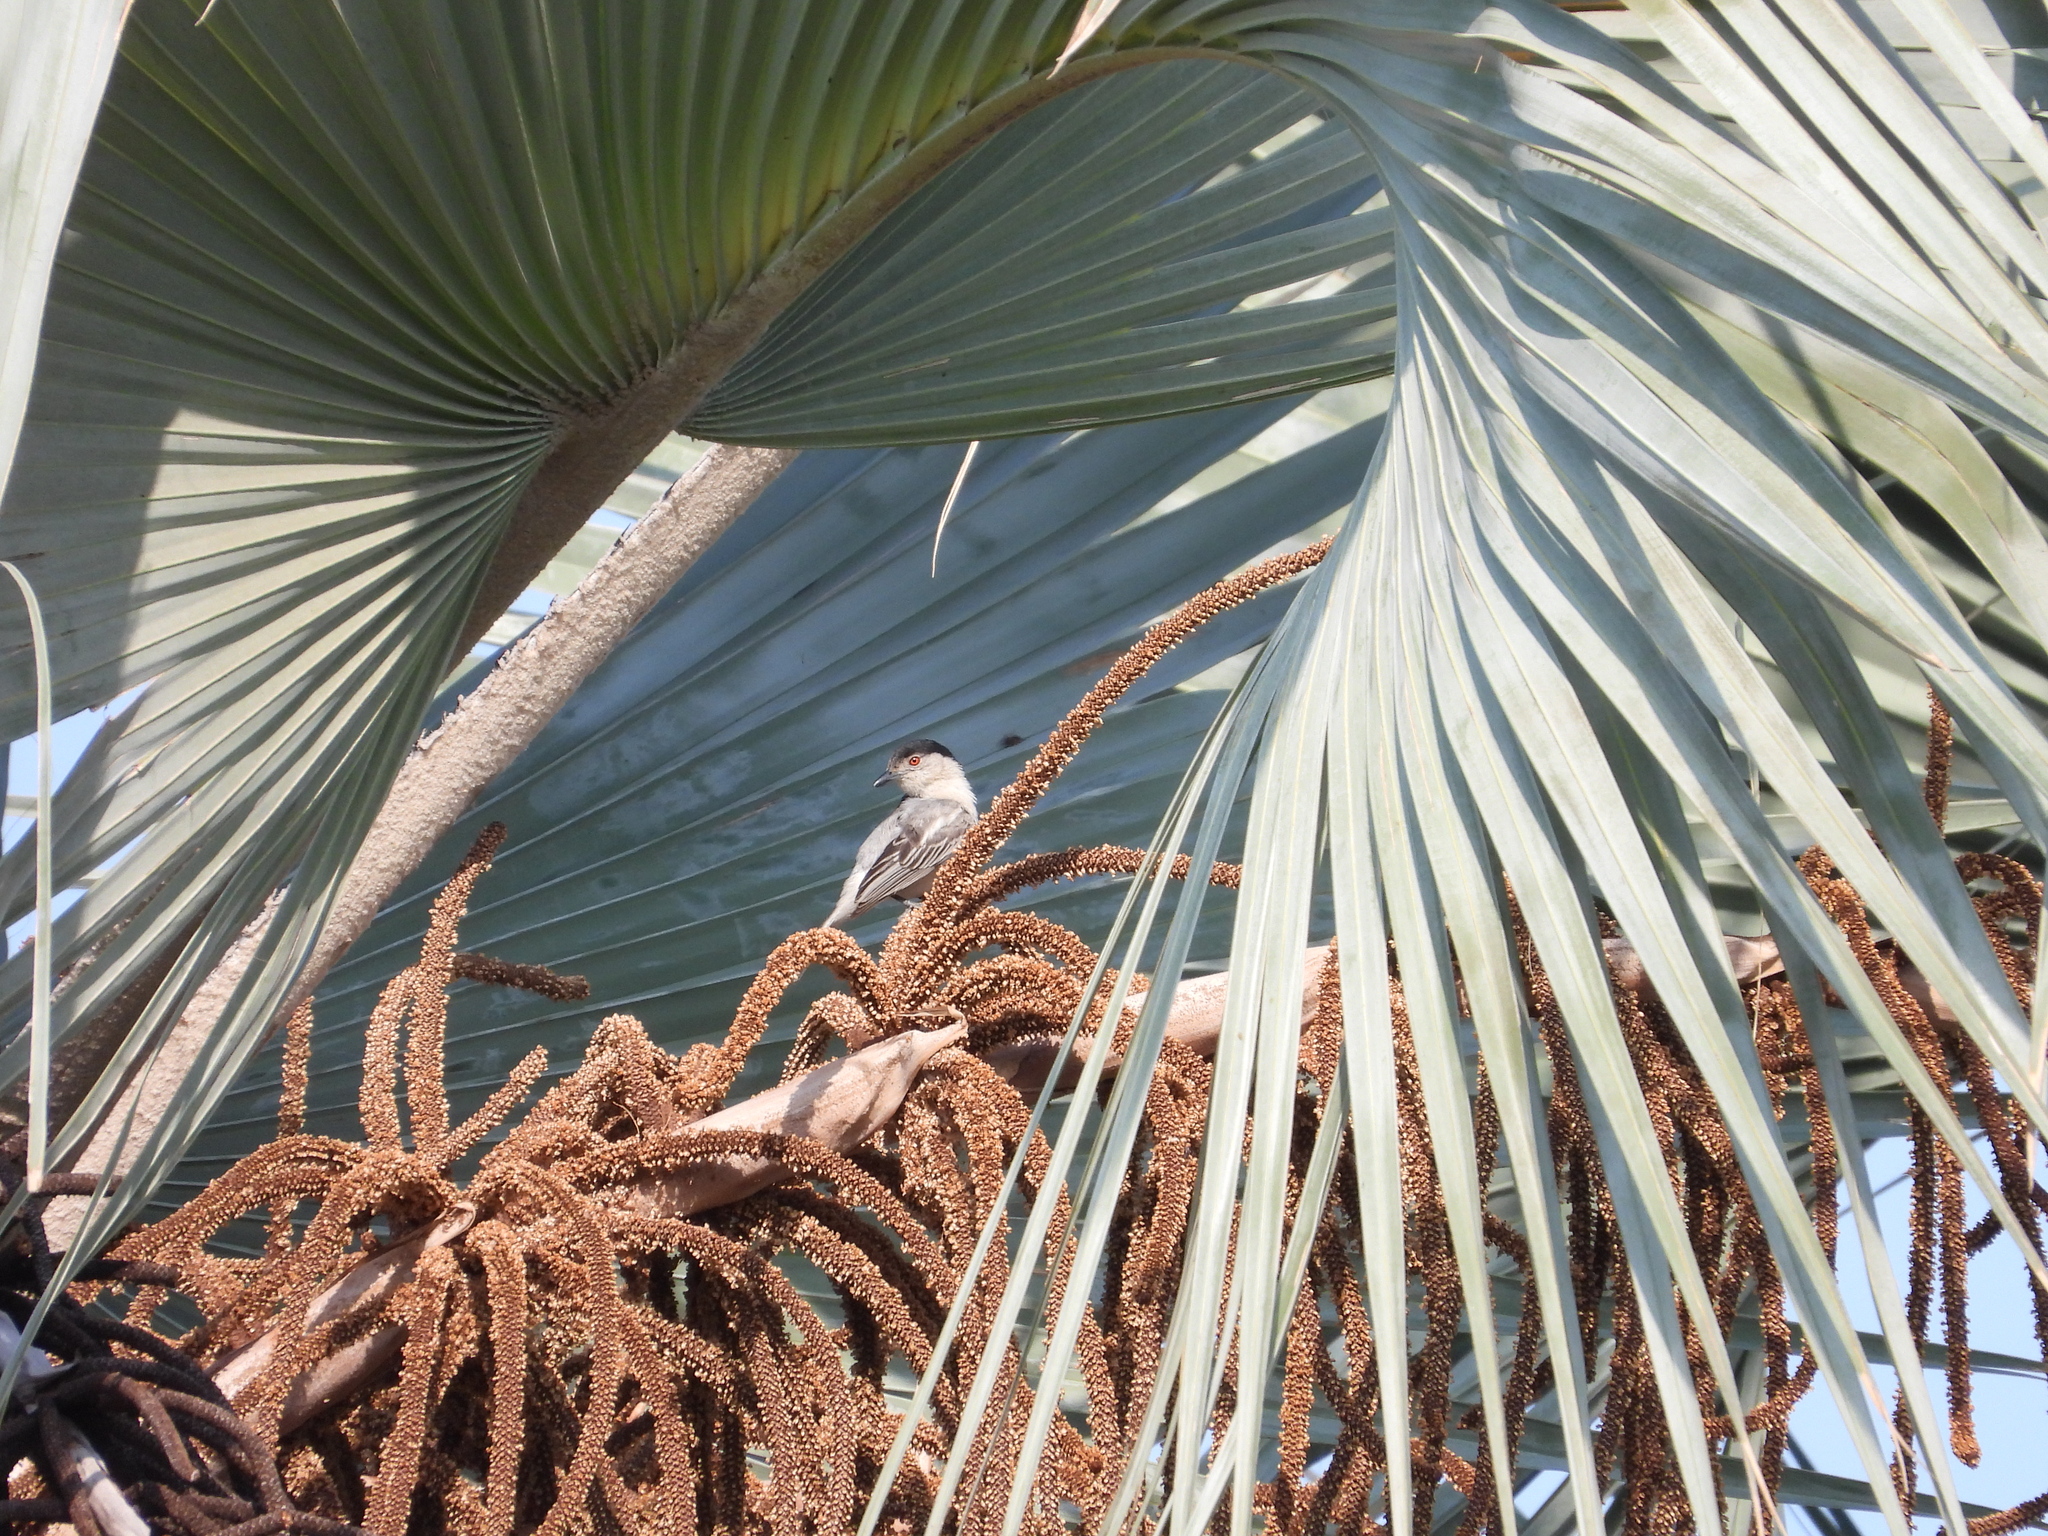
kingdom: Animalia
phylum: Chordata
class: Aves
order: Passeriformes
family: Malaconotidae
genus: Dryoscopus
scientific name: Dryoscopus cubla
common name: Black-backed puffback
